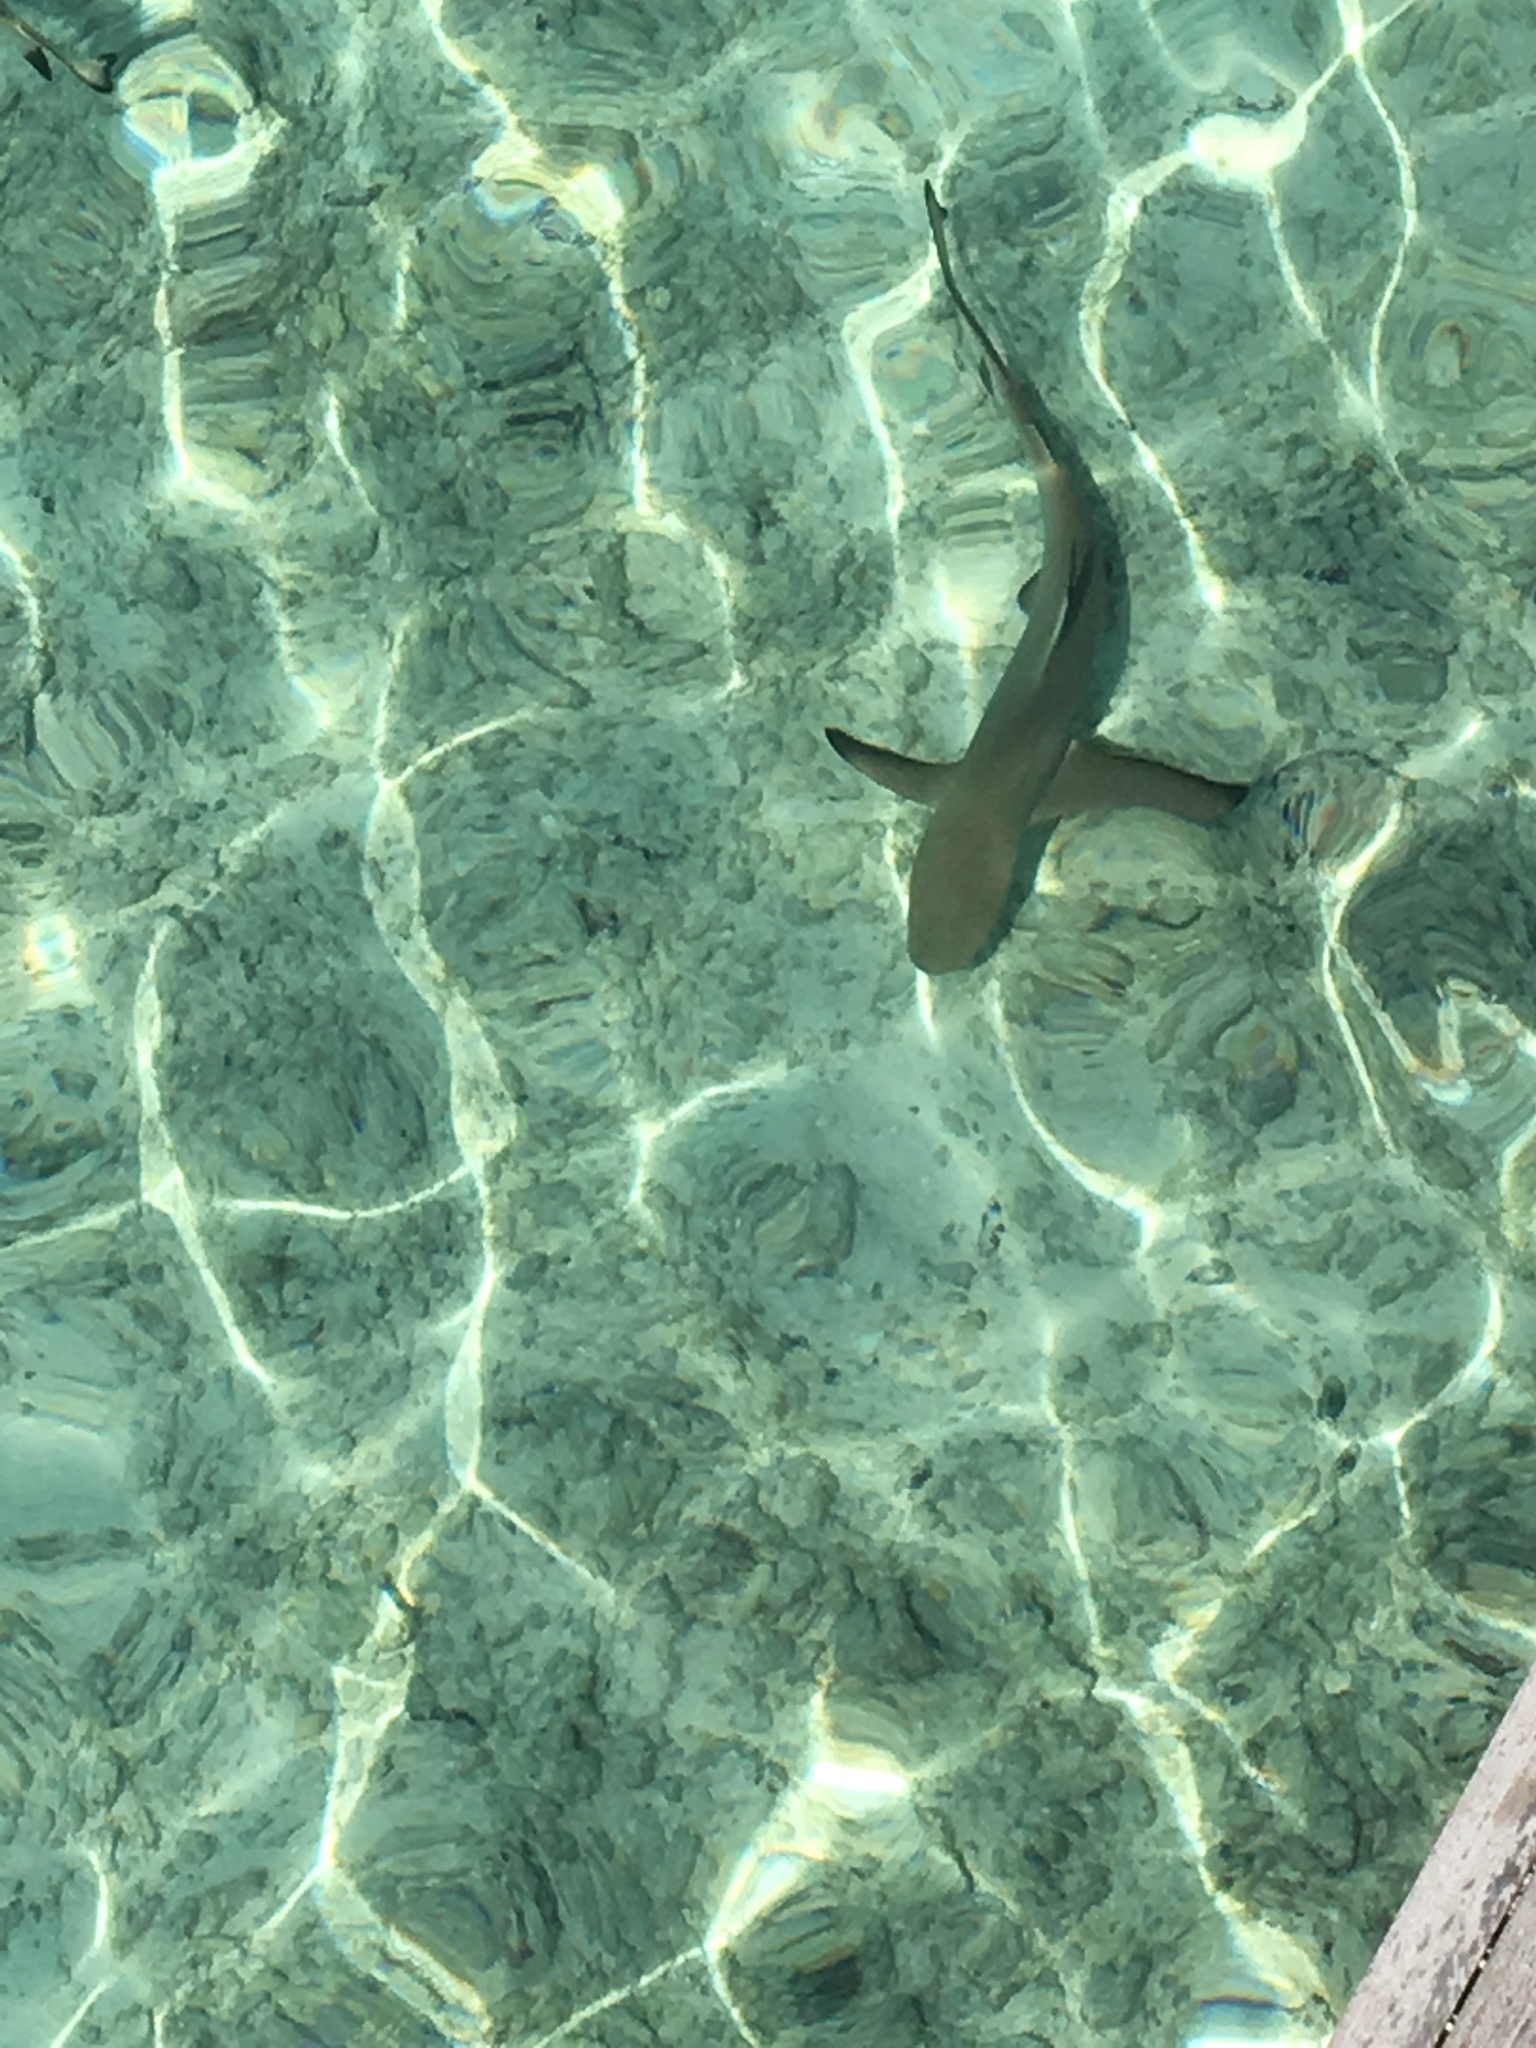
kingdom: Animalia
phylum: Chordata
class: Elasmobranchii
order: Carcharhiniformes
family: Carcharhinidae
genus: Carcharhinus
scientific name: Carcharhinus melanopterus
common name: Blacktip reef shark
